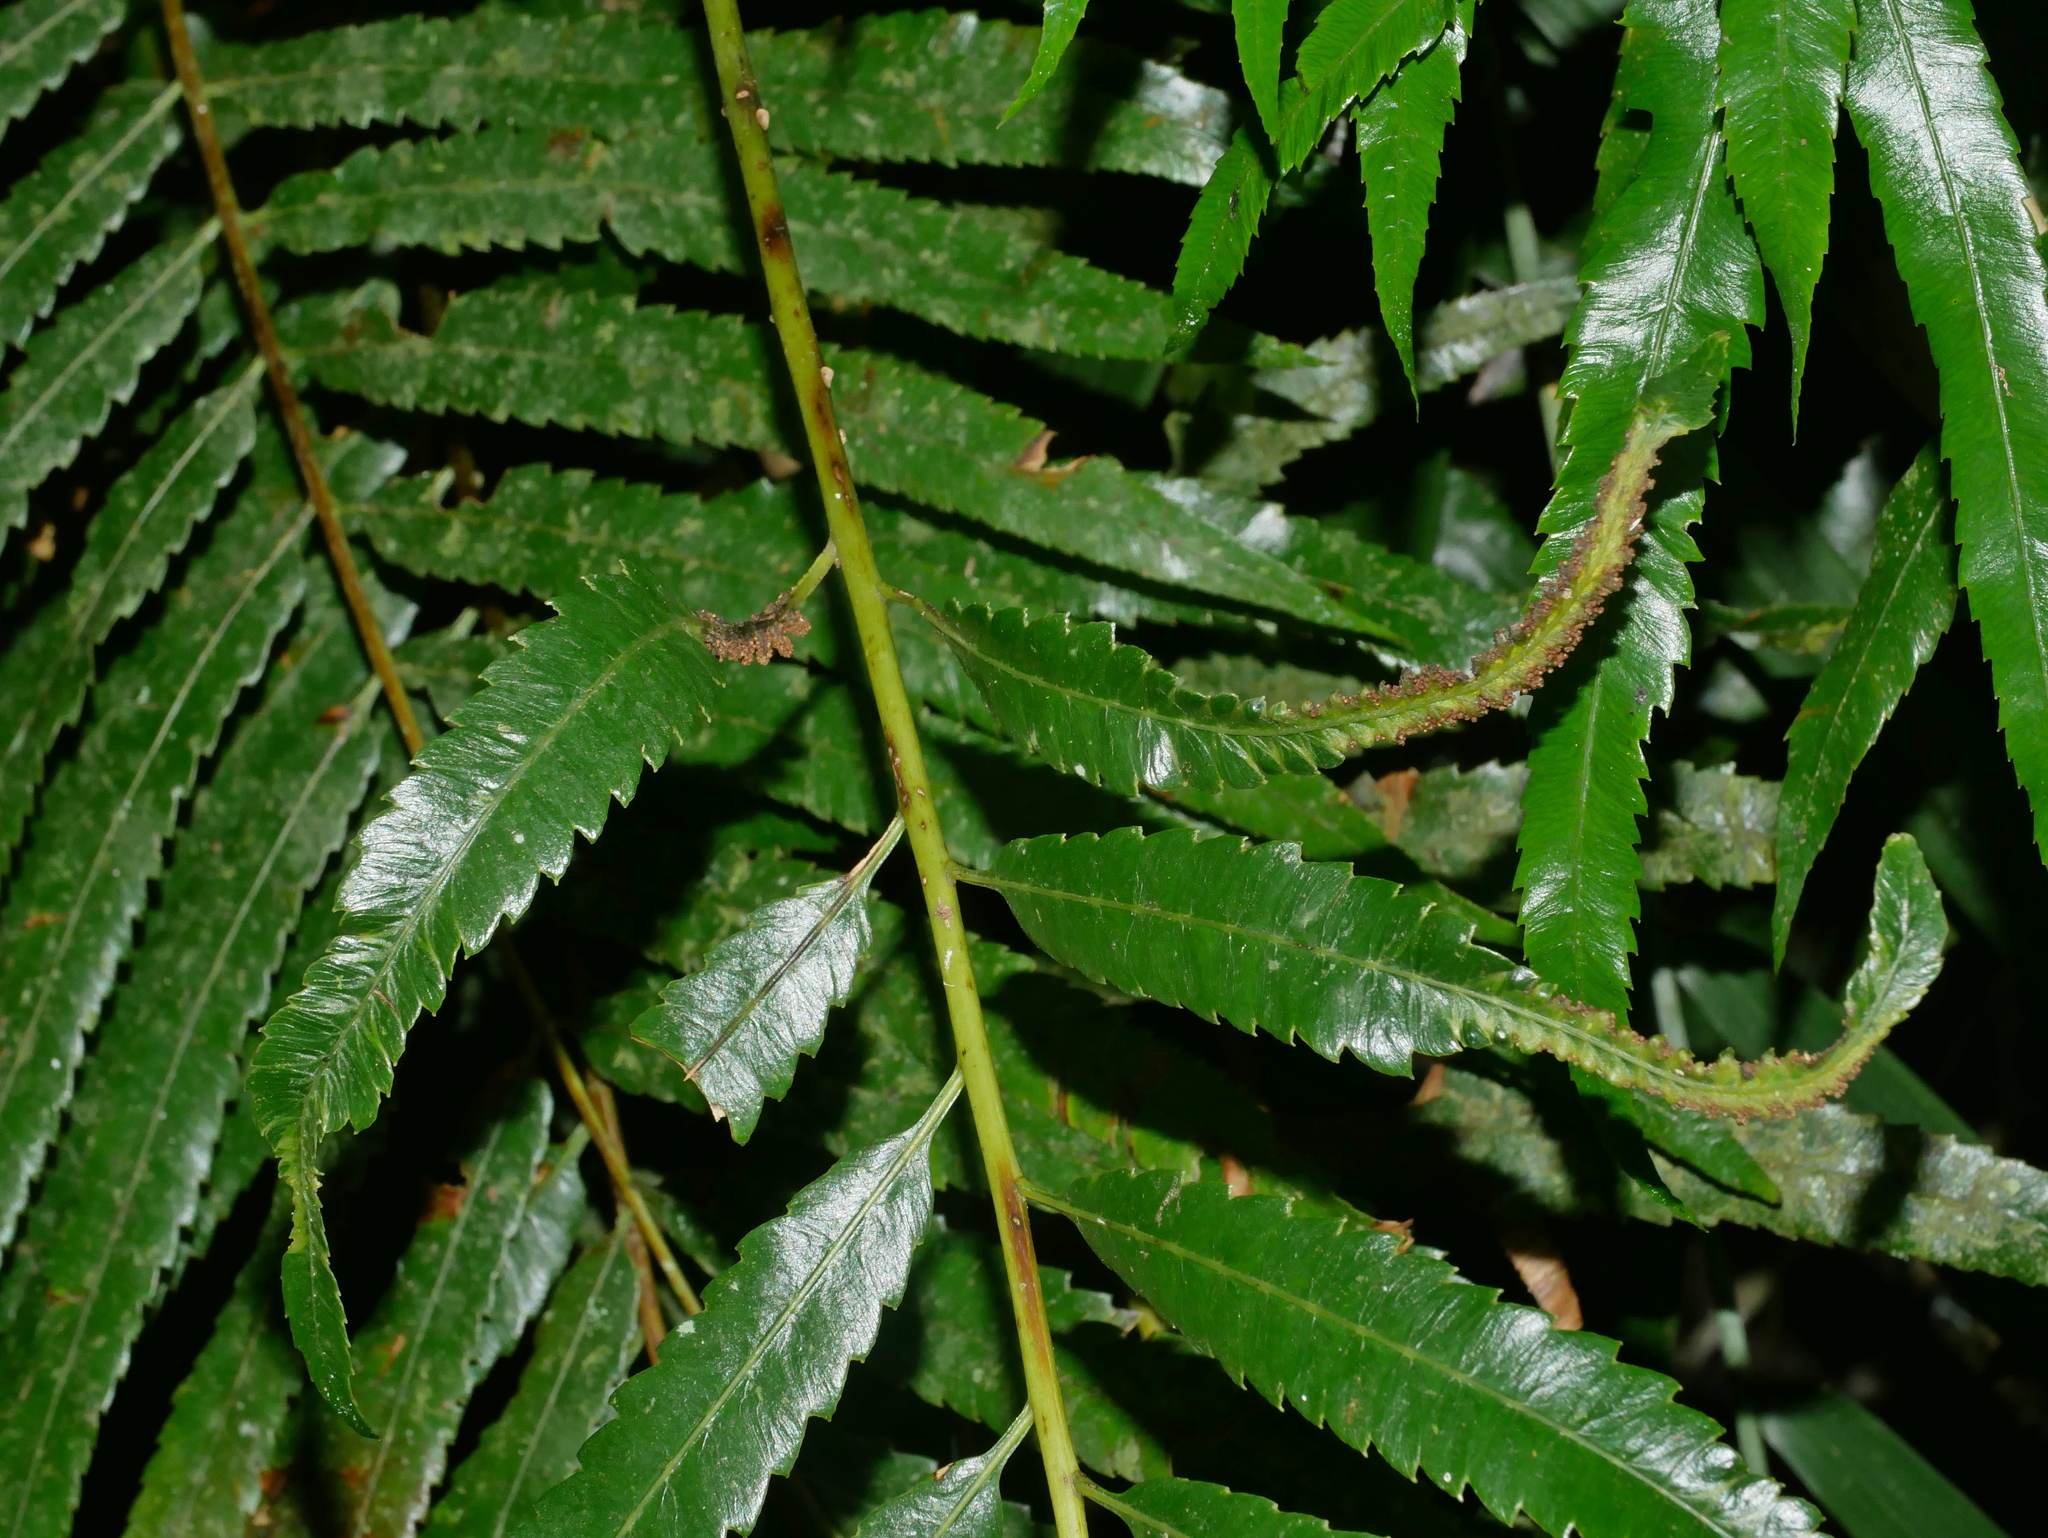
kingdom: Plantae
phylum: Tracheophyta
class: Polypodiopsida
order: Osmundales
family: Osmundaceae
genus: Plenasium
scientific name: Plenasium banksiifolium
